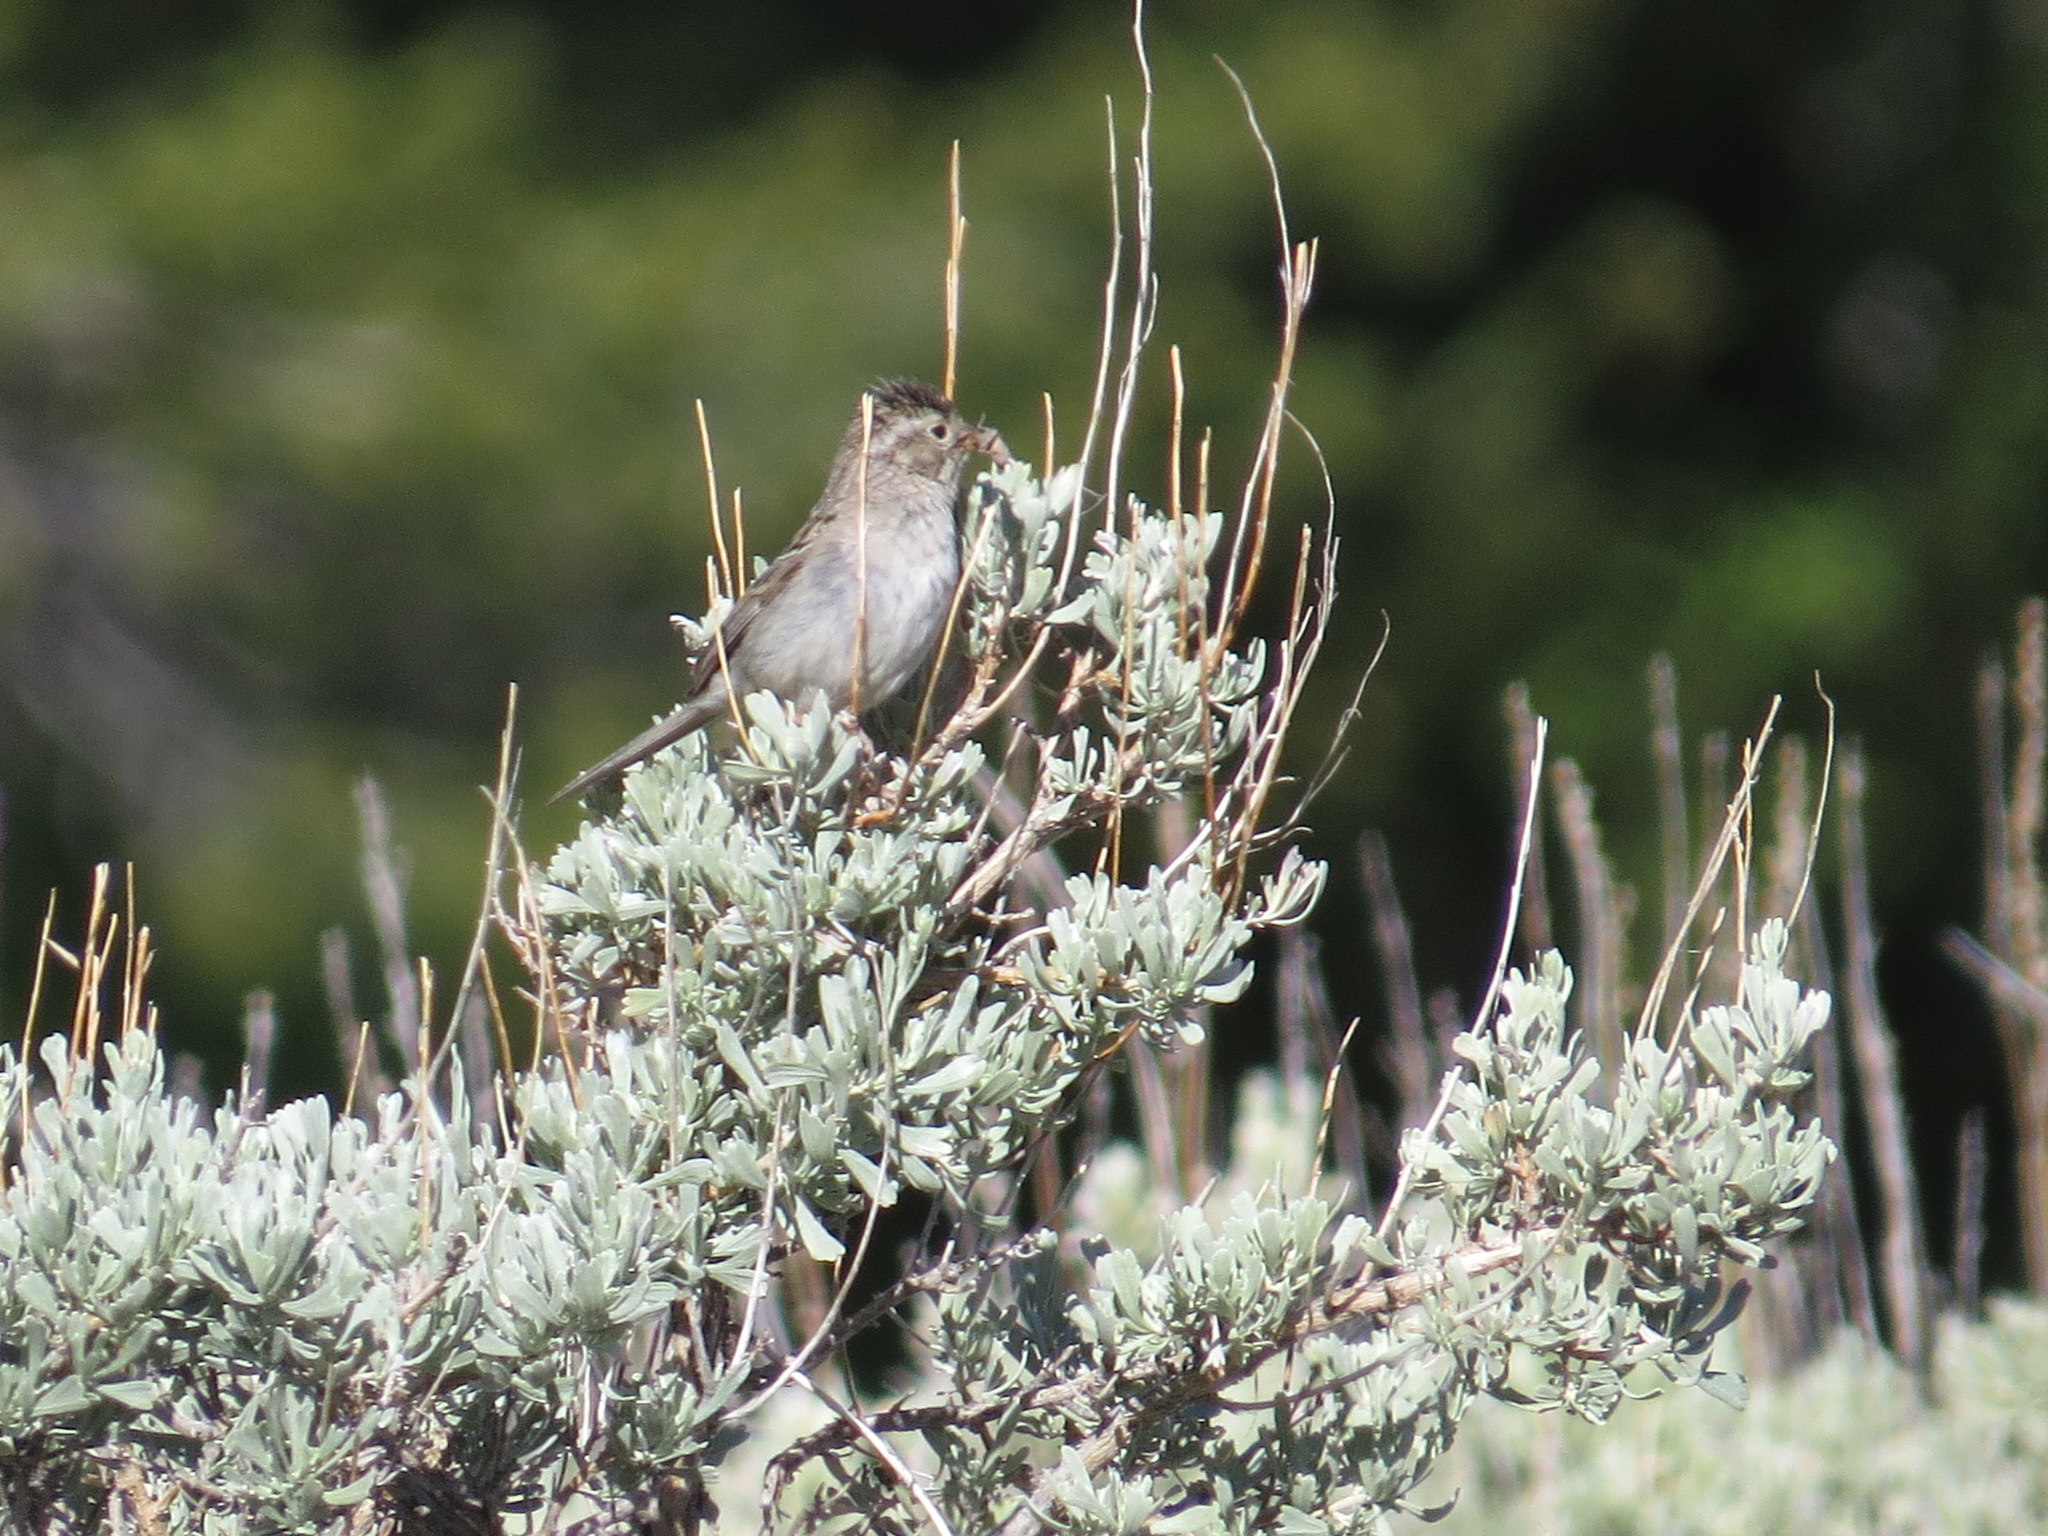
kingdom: Animalia
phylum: Chordata
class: Aves
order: Passeriformes
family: Passerellidae
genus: Spizella
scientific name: Spizella breweri
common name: Brewer's sparrow
